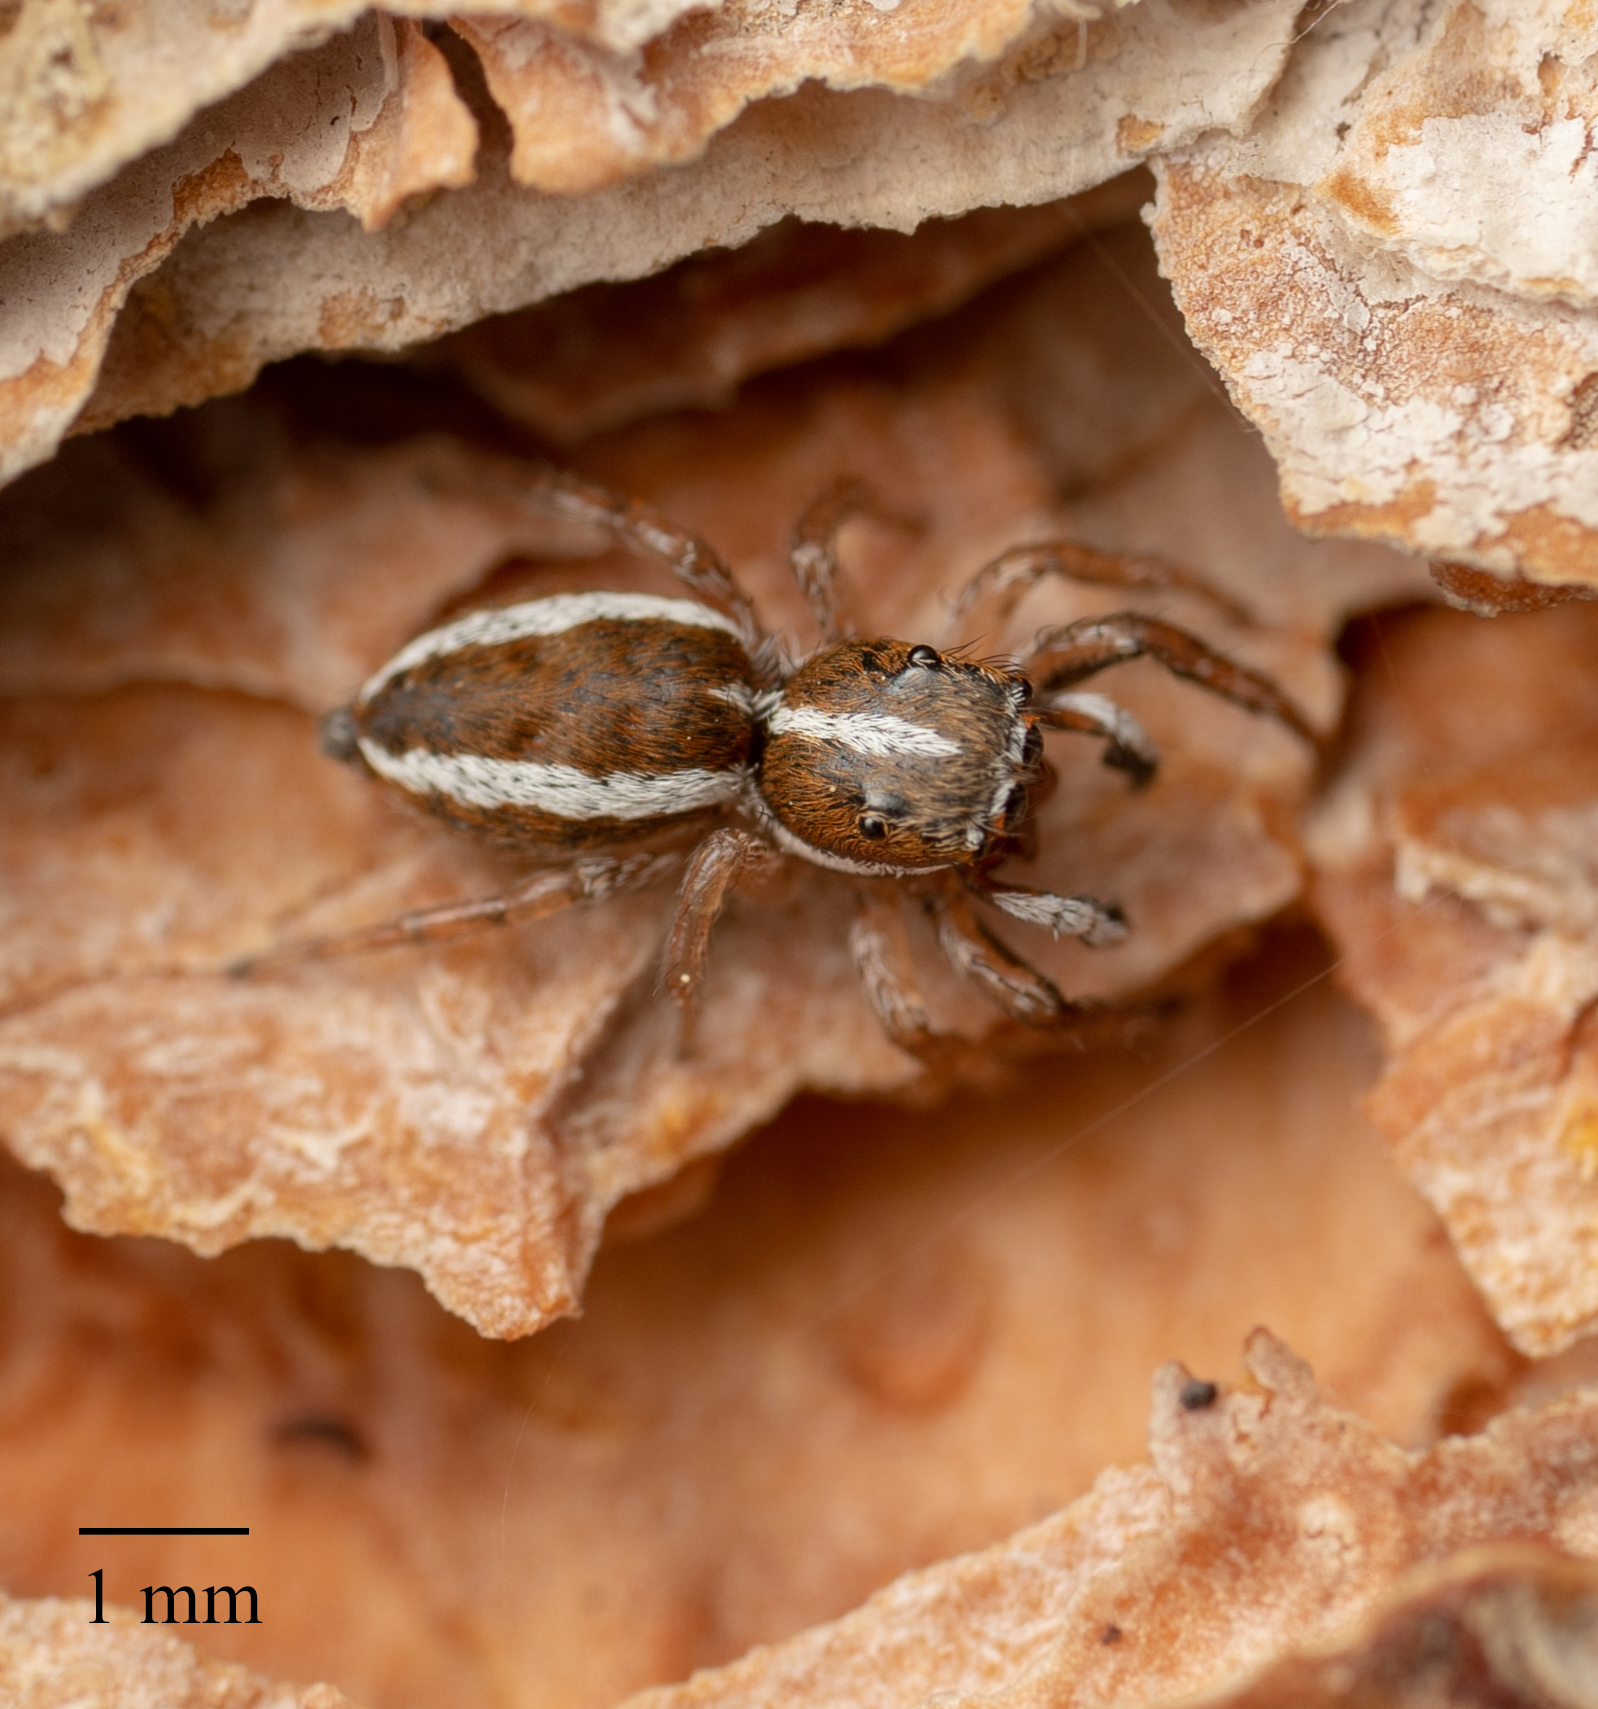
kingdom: Animalia
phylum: Arthropoda
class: Arachnida
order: Araneae
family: Salticidae
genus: Marchena
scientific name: Marchena minuta
